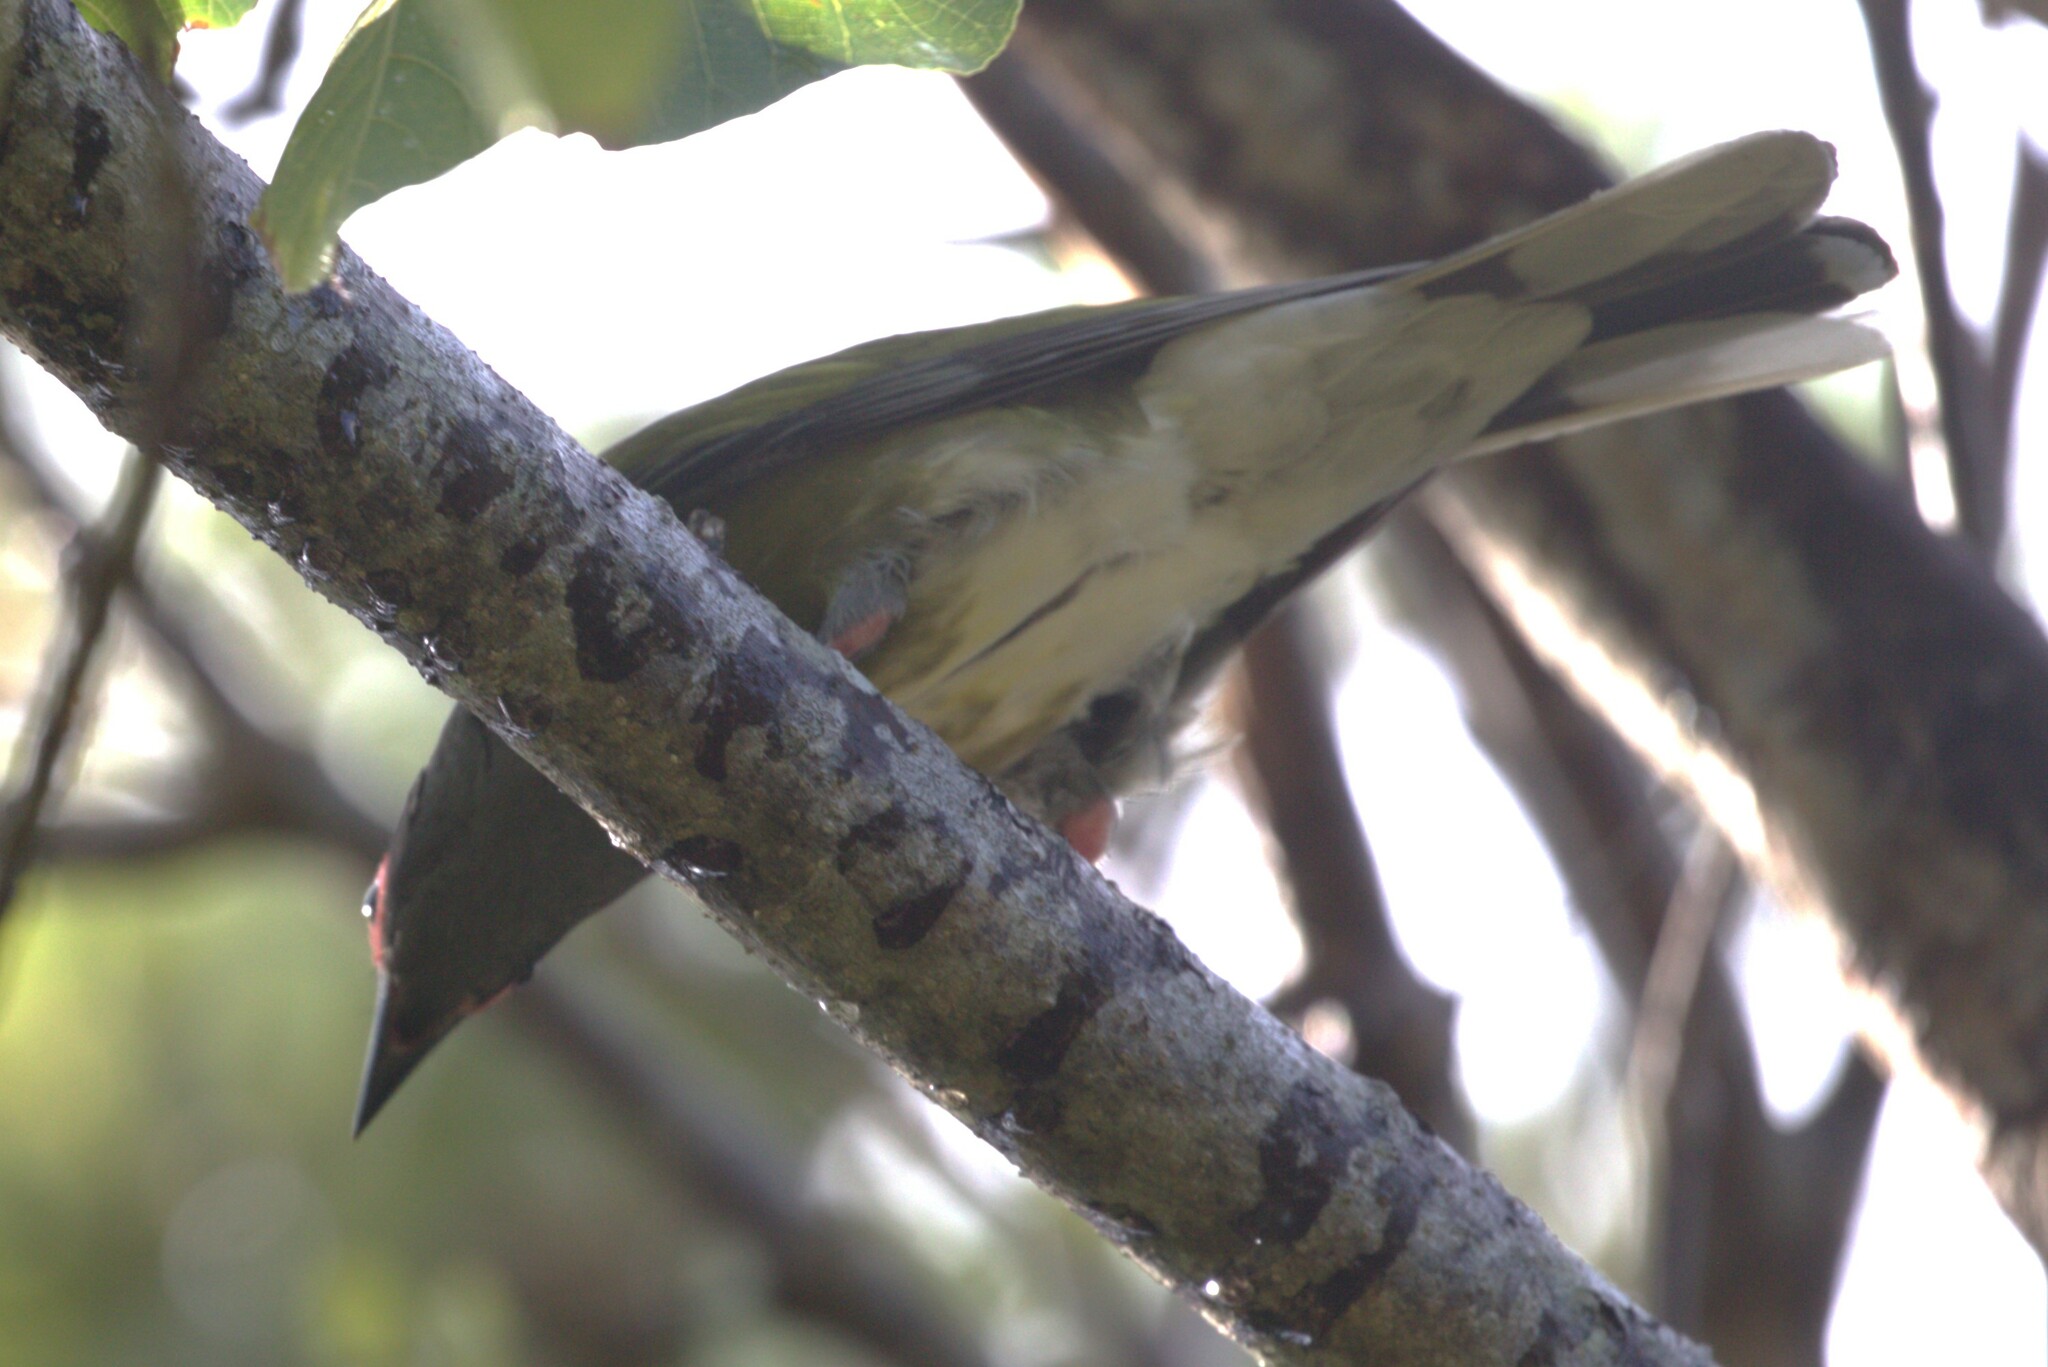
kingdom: Animalia
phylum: Chordata
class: Aves
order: Passeriformes
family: Oriolidae
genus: Sphecotheres
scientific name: Sphecotheres vieilloti
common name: Australasian figbird
